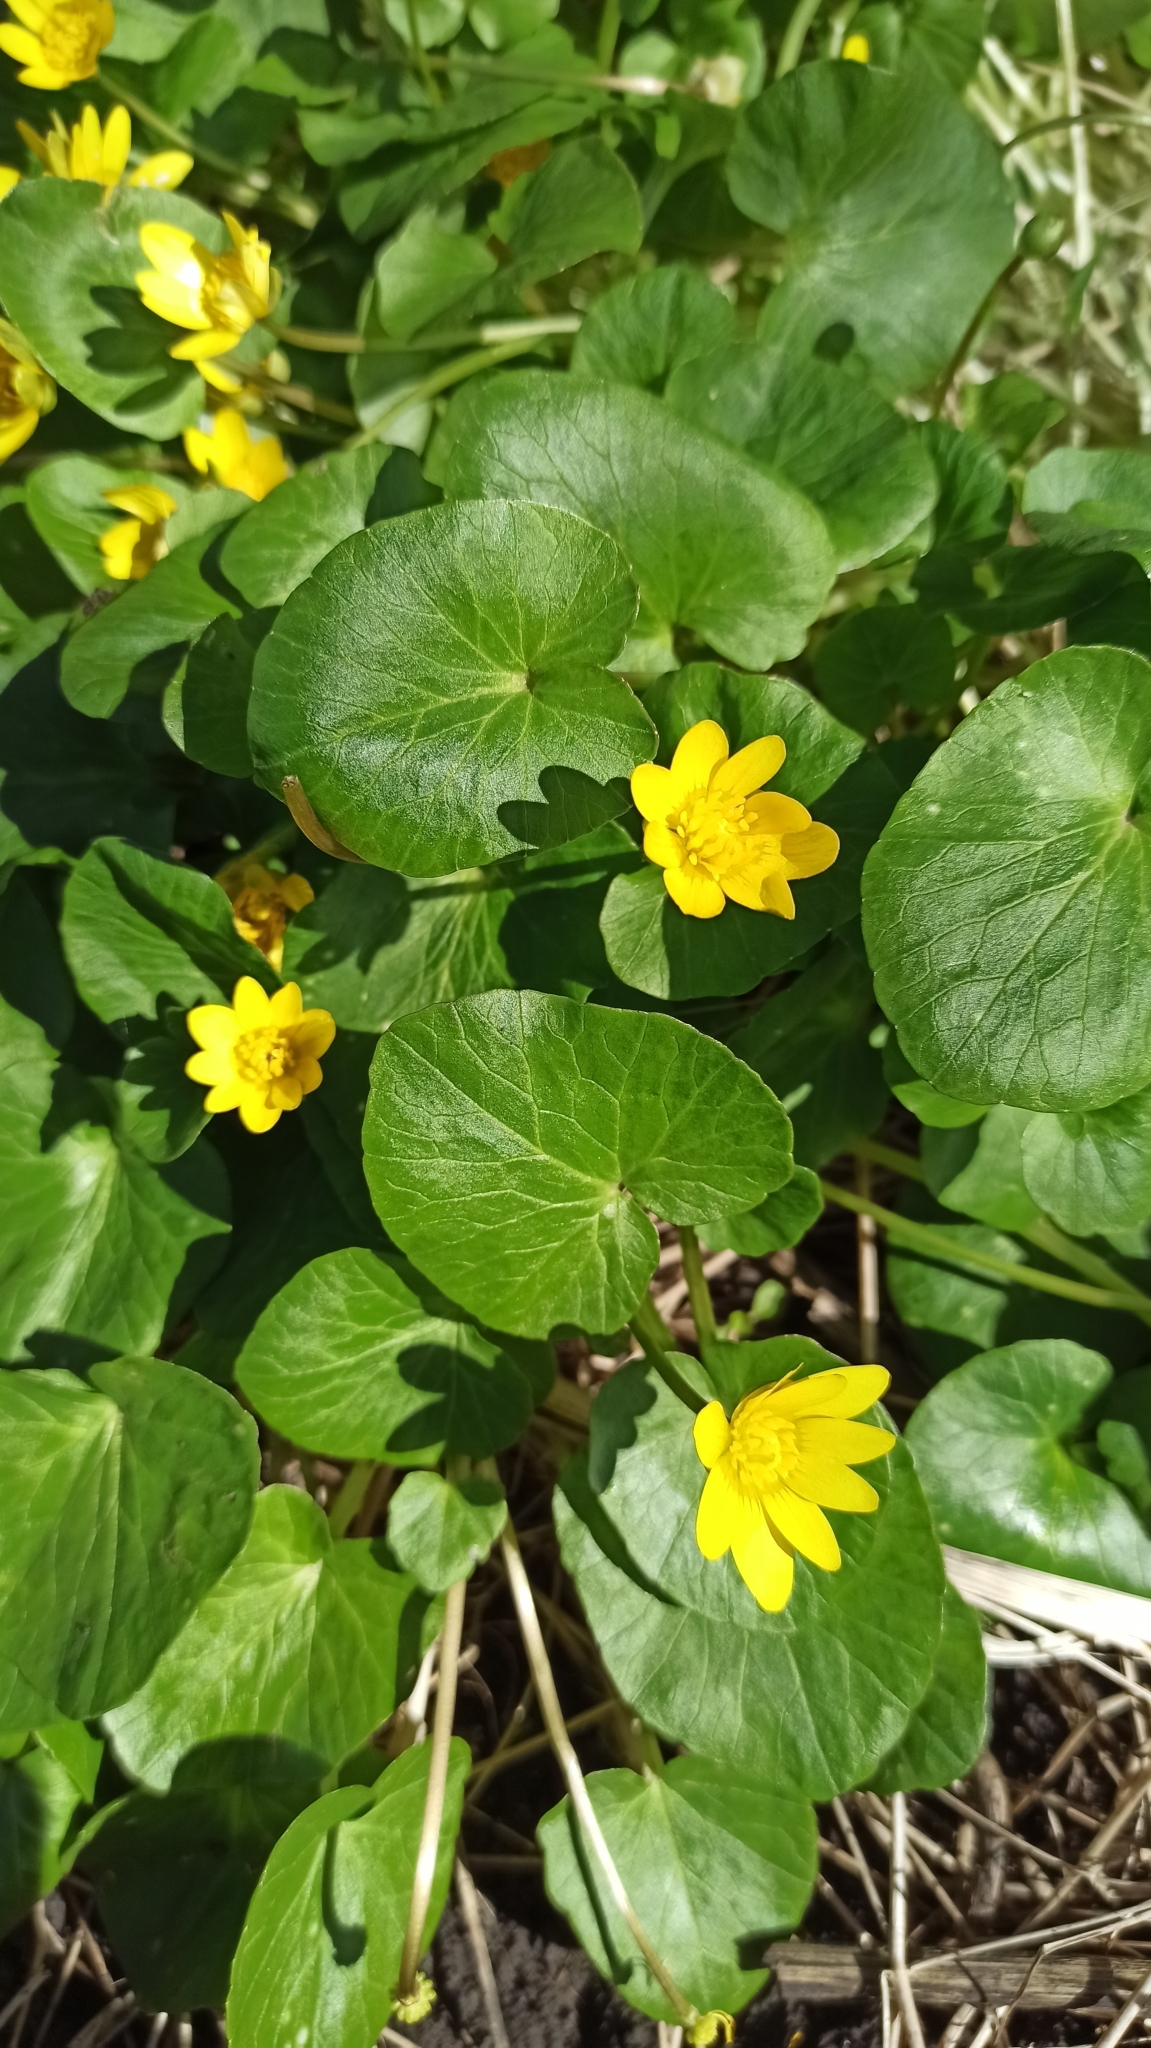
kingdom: Plantae
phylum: Tracheophyta
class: Magnoliopsida
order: Ranunculales
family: Ranunculaceae
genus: Ficaria
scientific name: Ficaria verna
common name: Lesser celandine
